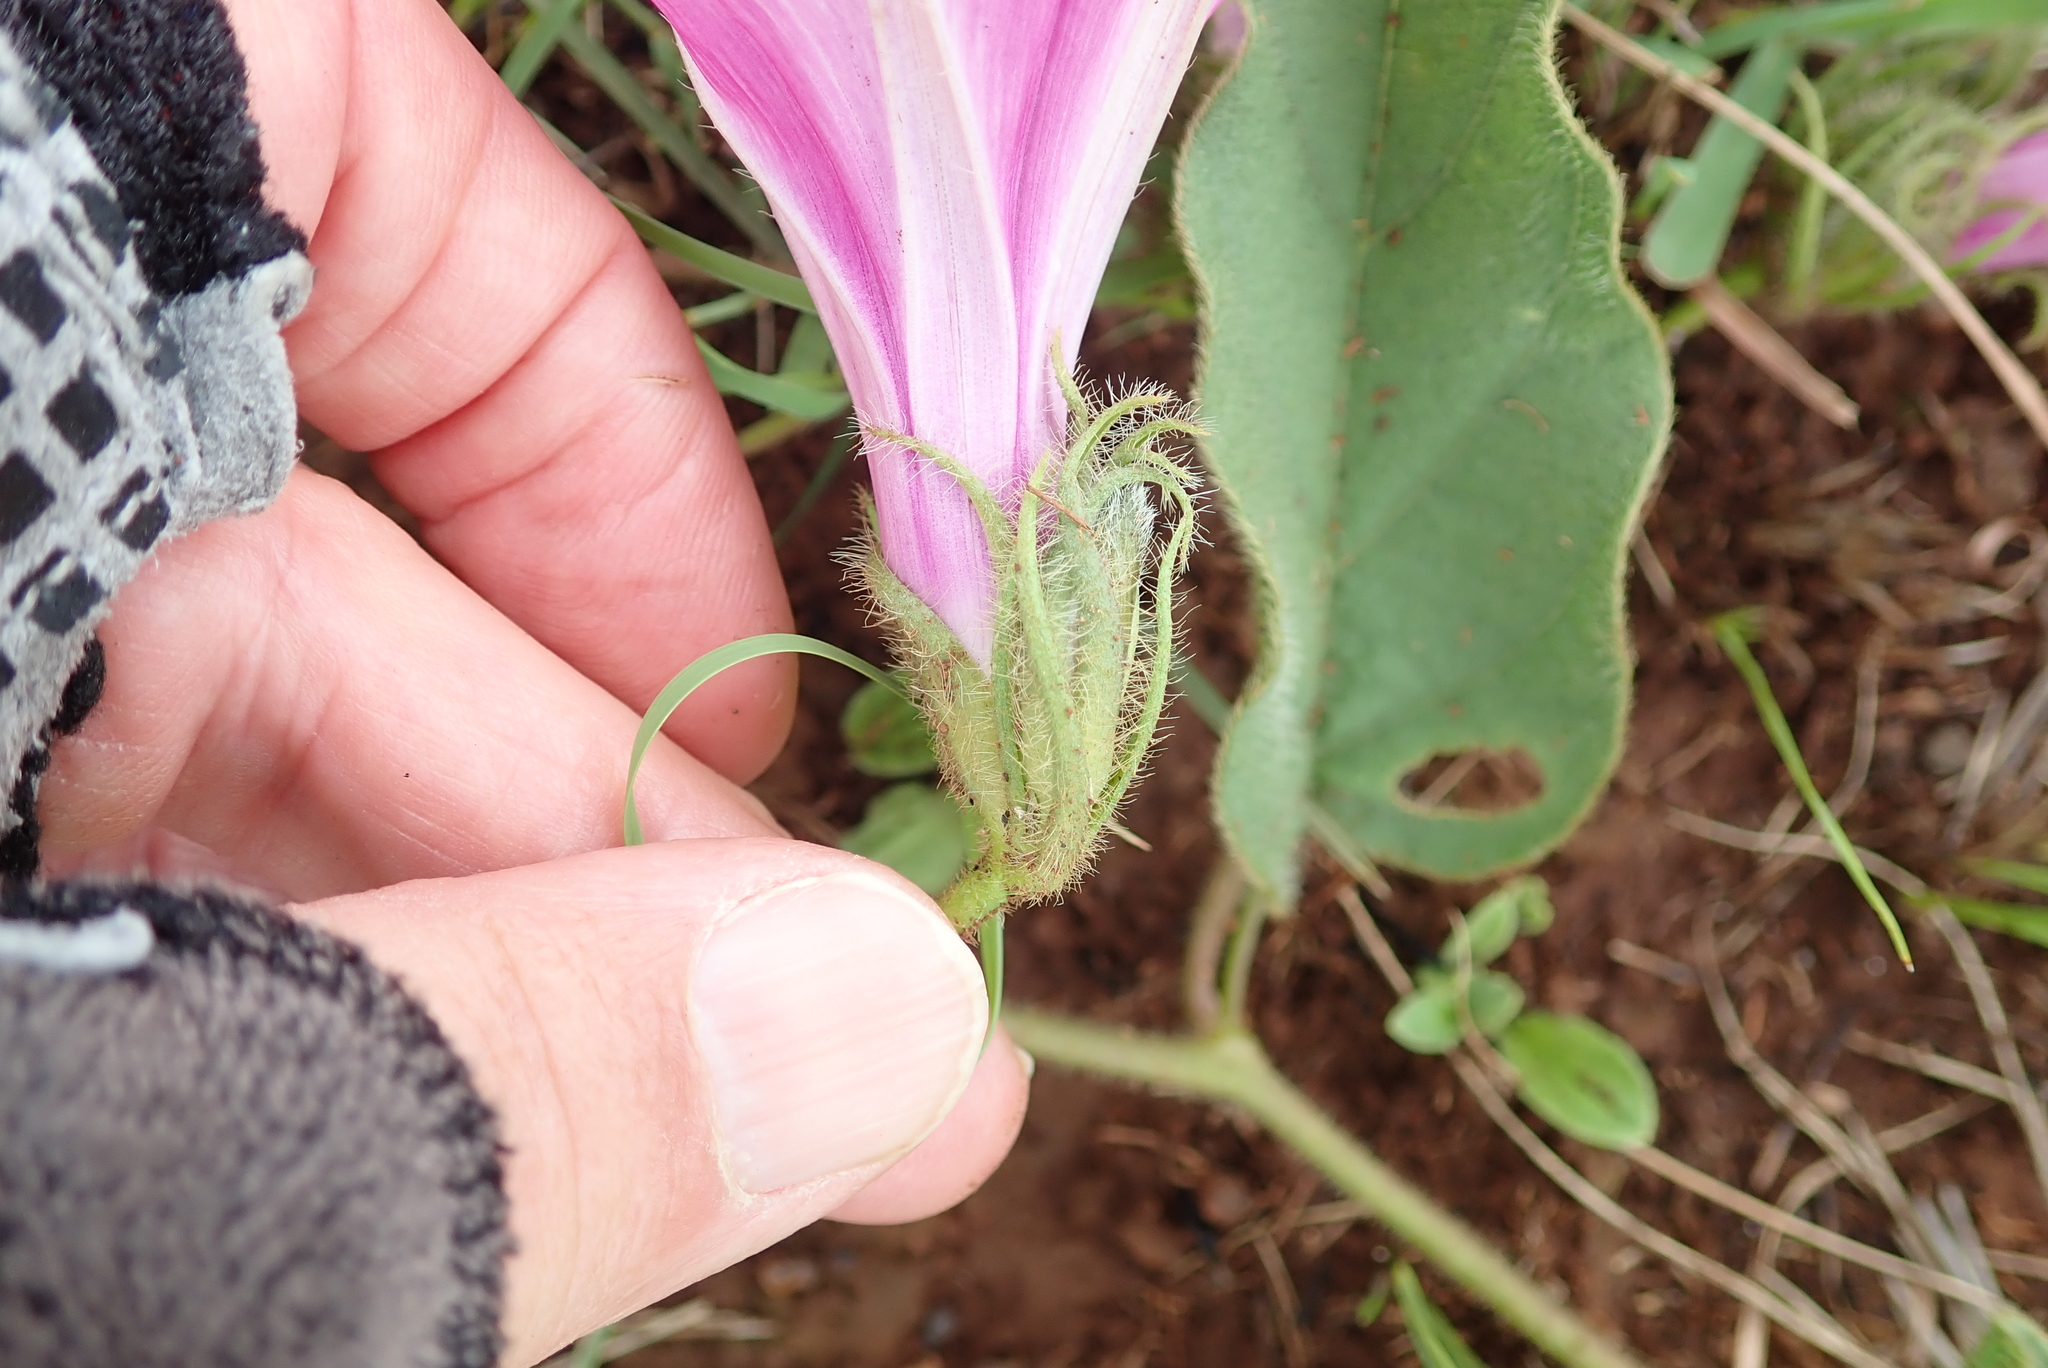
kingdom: Plantae
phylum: Tracheophyta
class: Magnoliopsida
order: Solanales
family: Convolvulaceae
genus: Ipomoea
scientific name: Ipomoea pellita
